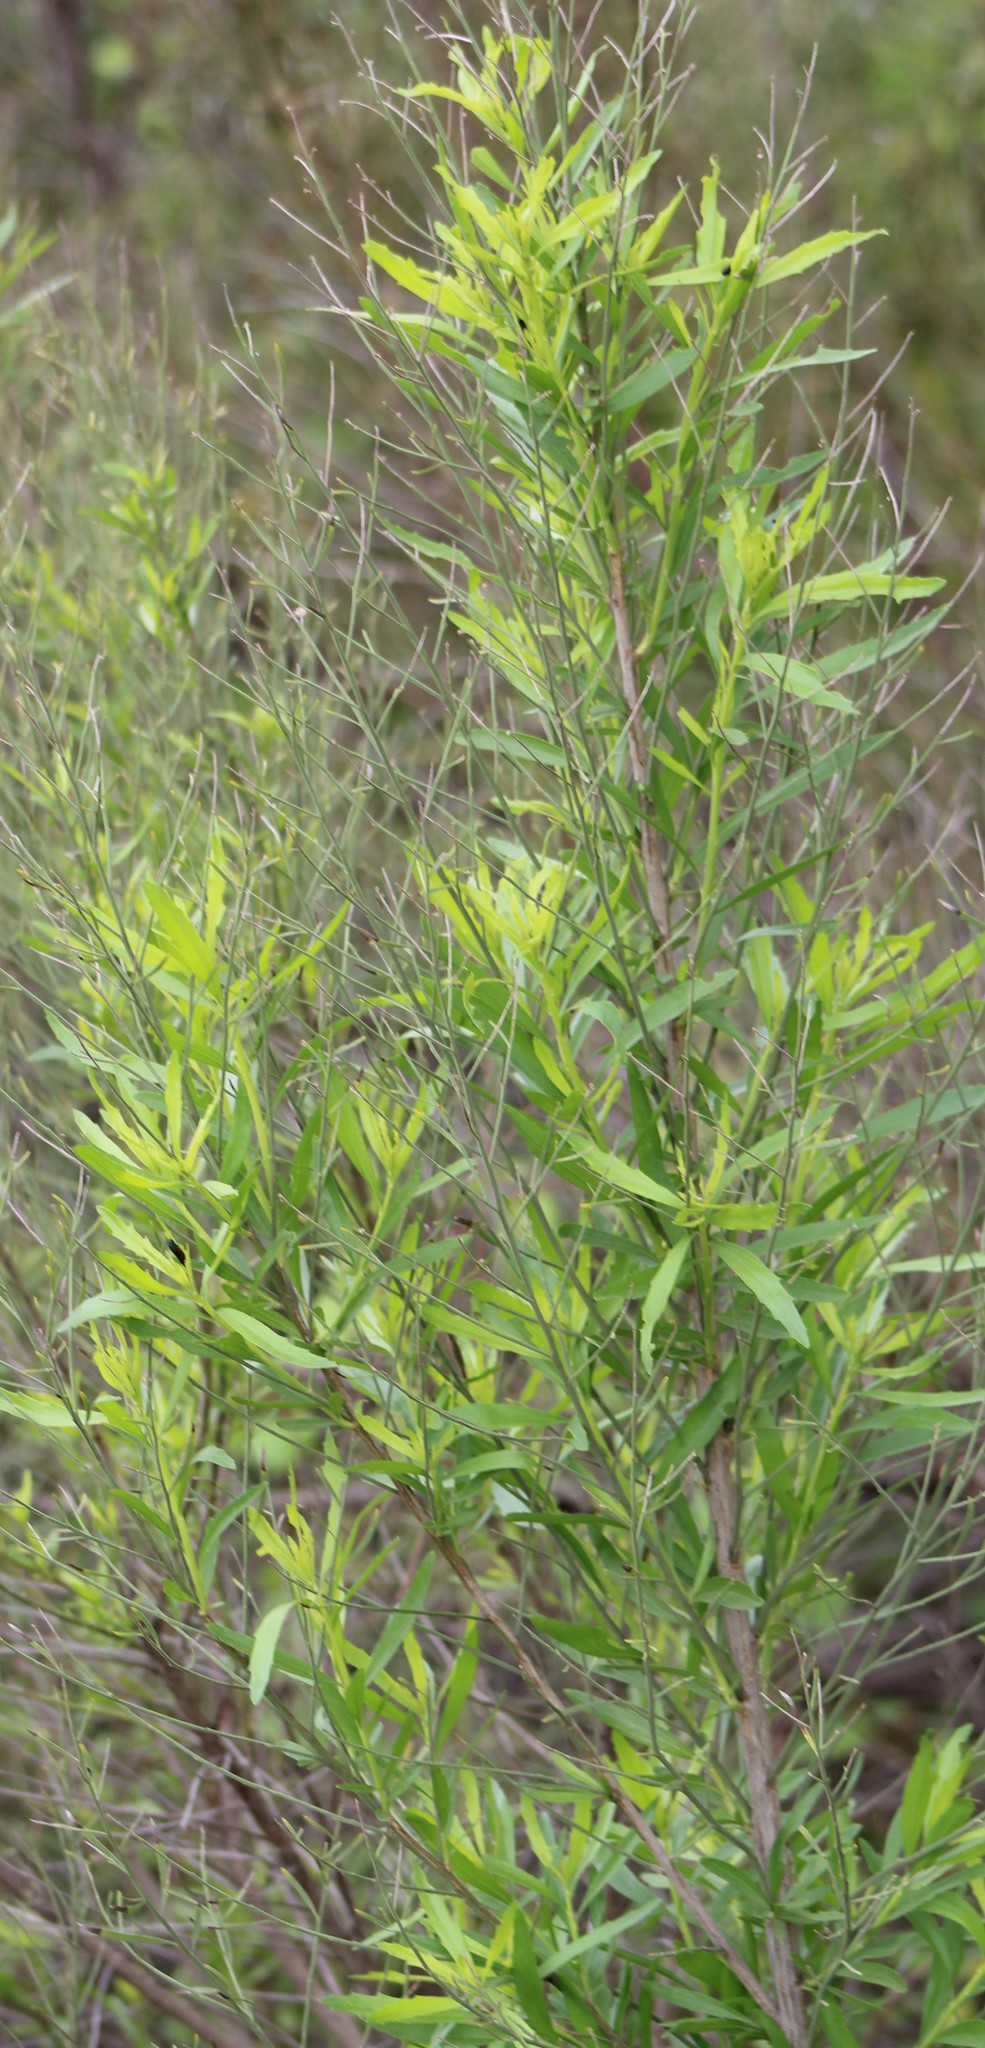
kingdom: Plantae
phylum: Tracheophyta
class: Magnoliopsida
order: Asterales
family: Asteraceae
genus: Baccharis
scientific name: Baccharis neglecta
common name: Roosevelt-weed
